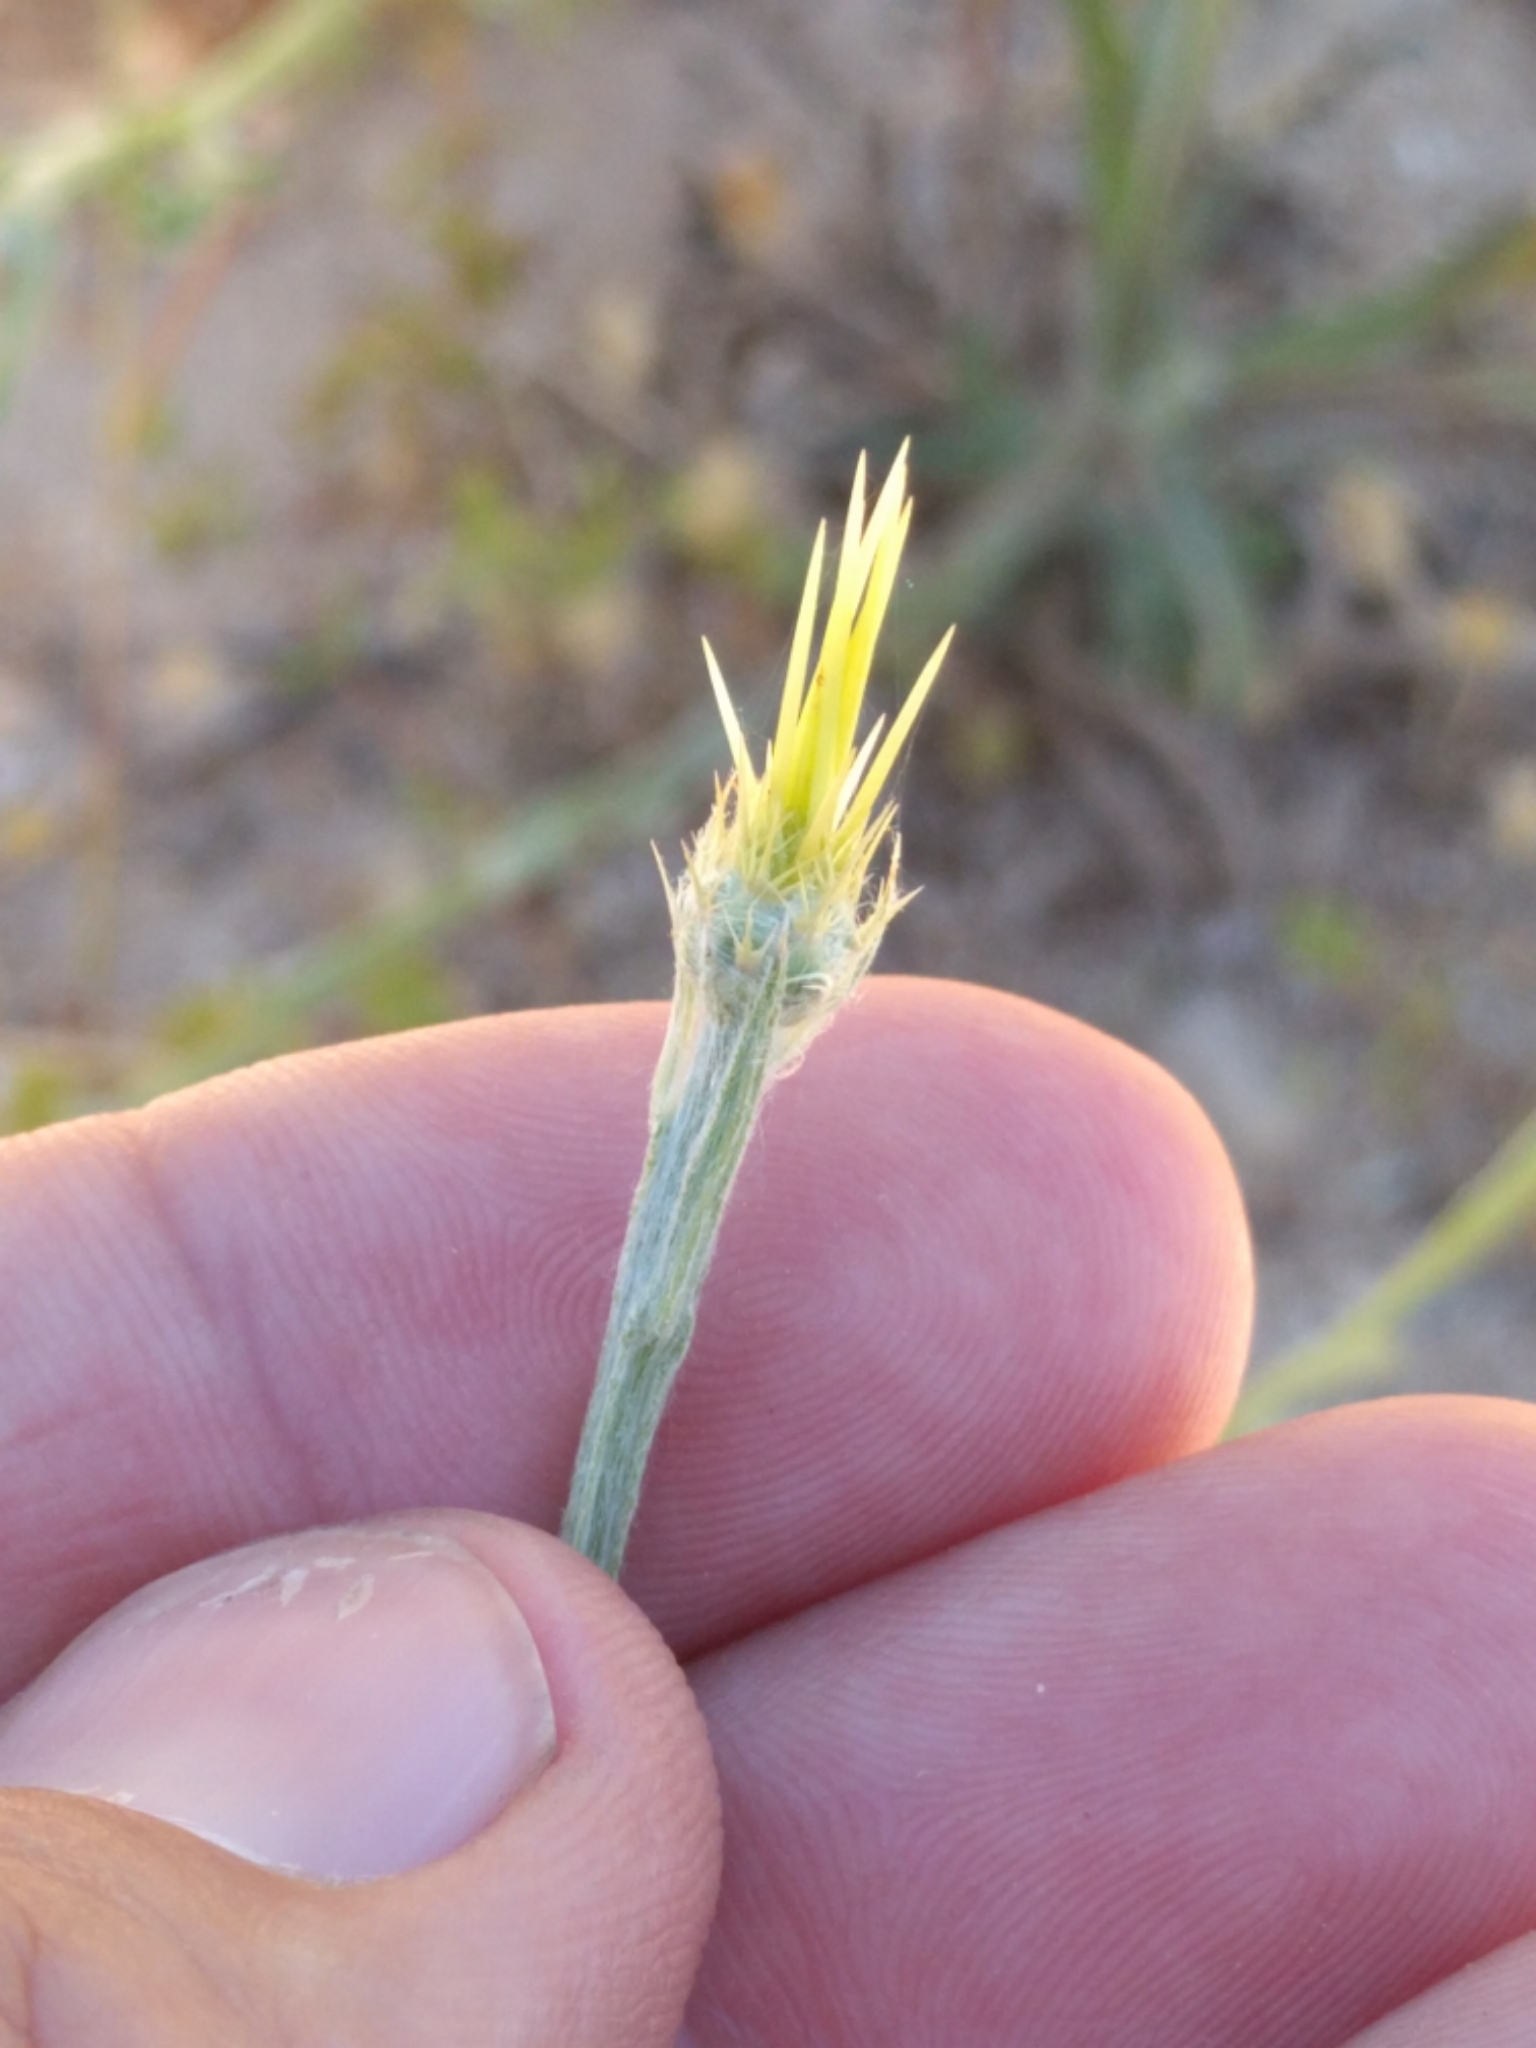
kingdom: Plantae
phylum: Tracheophyta
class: Magnoliopsida
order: Asterales
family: Asteraceae
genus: Centaurea
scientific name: Centaurea solstitialis
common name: Yellow star-thistle
